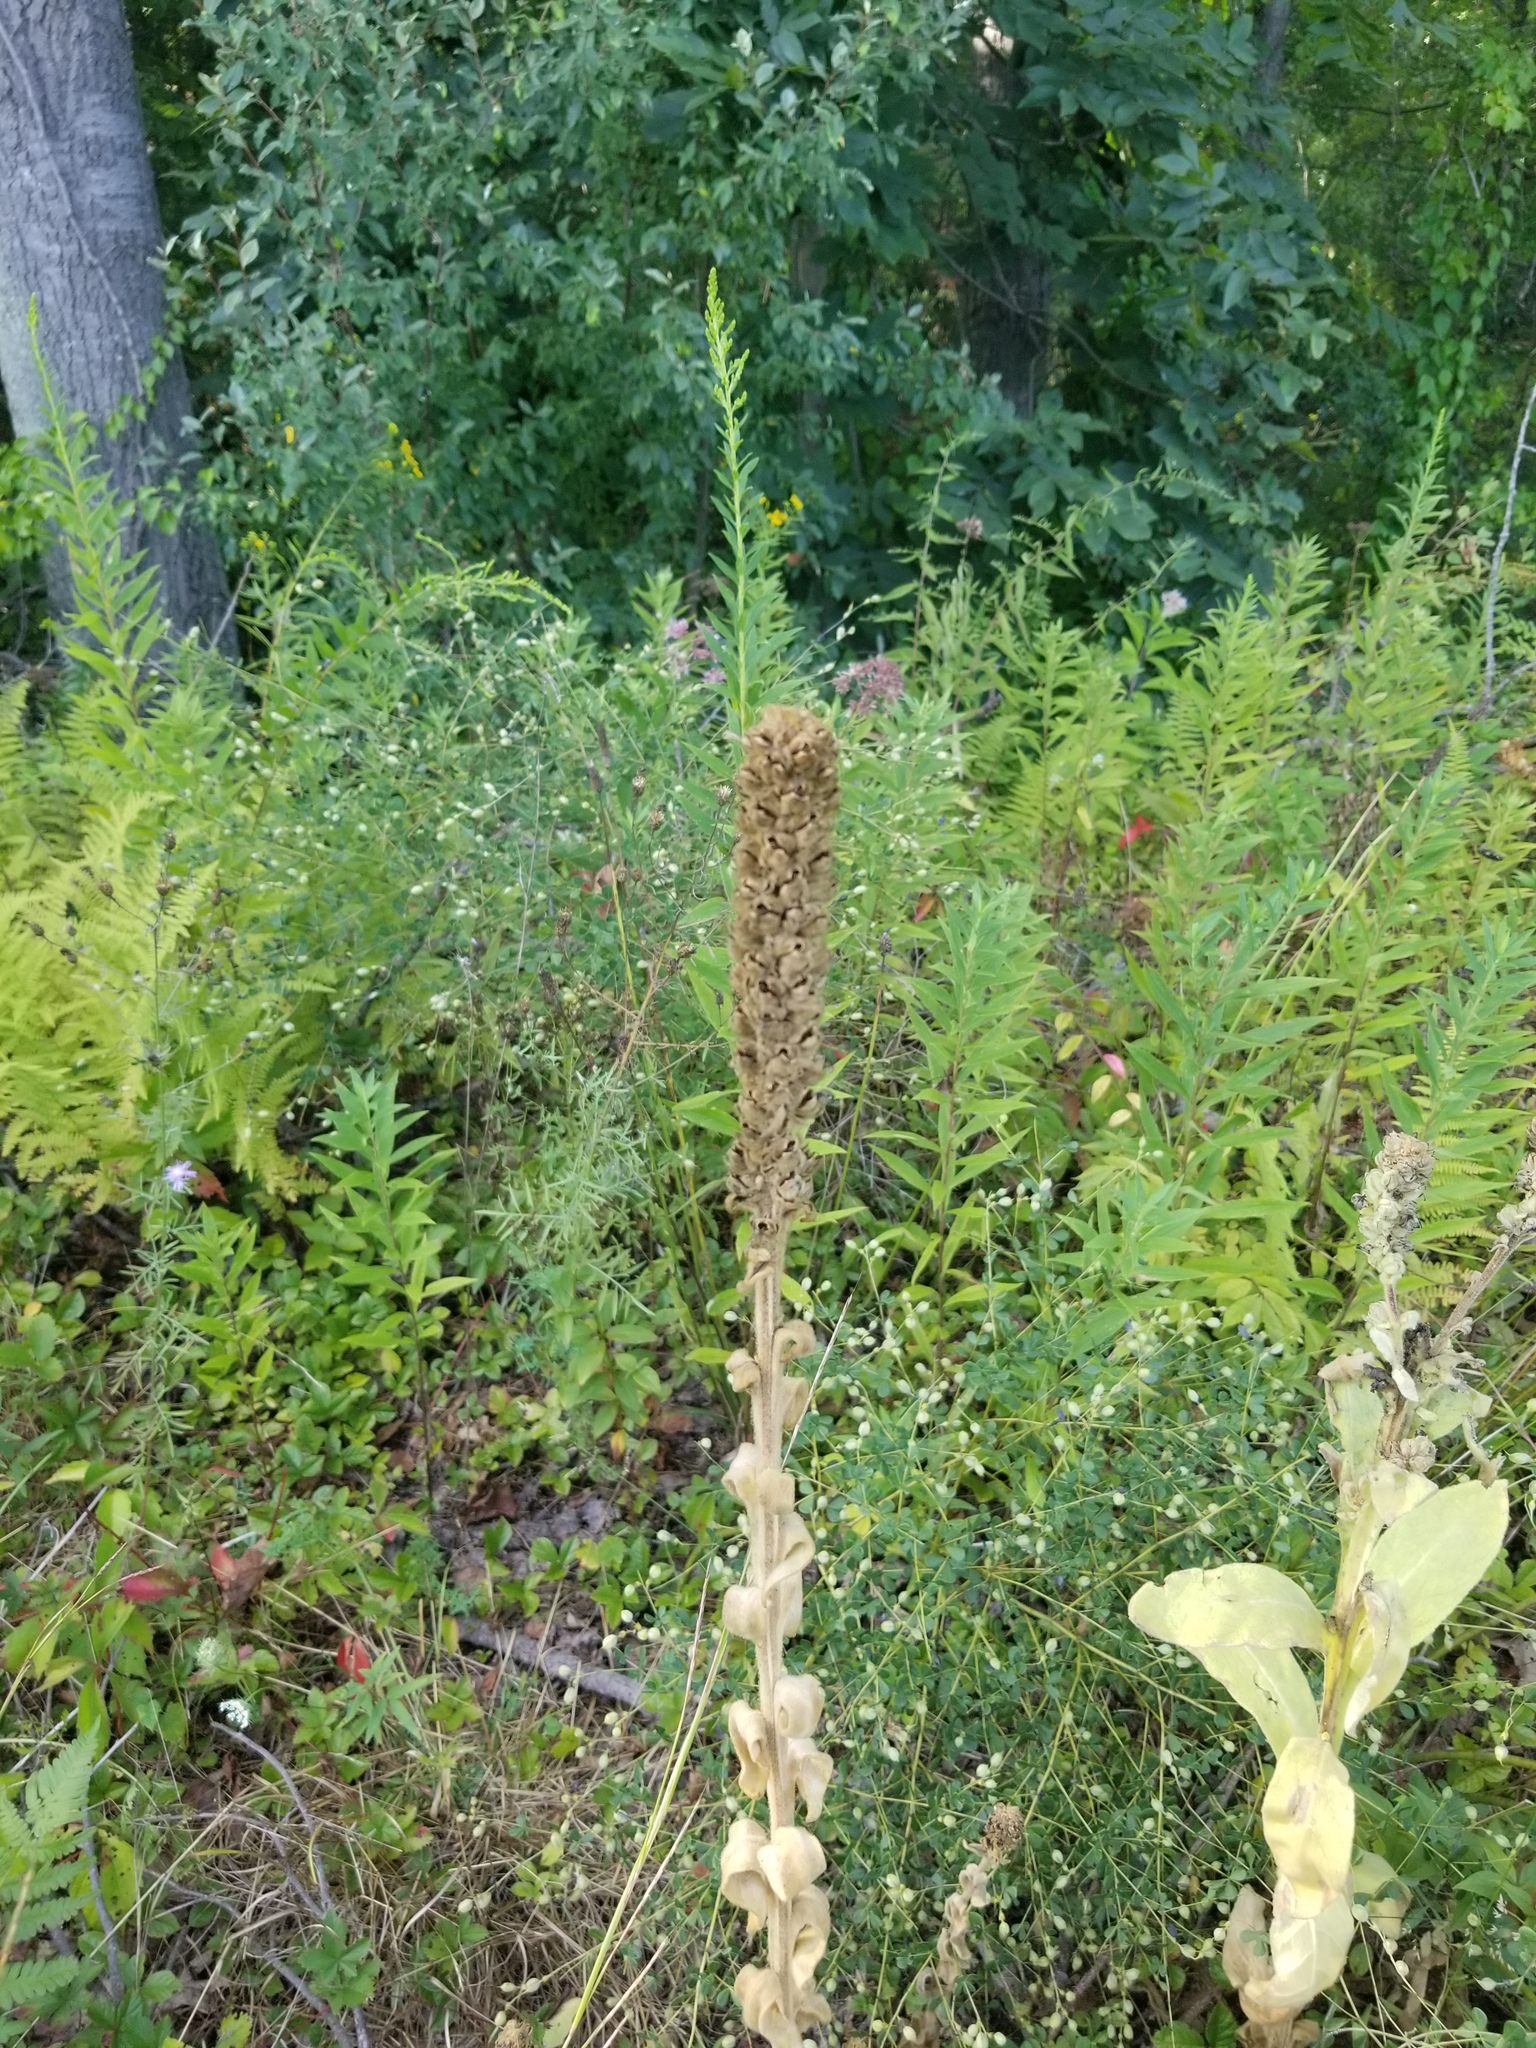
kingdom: Plantae
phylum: Tracheophyta
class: Magnoliopsida
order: Lamiales
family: Scrophulariaceae
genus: Verbascum
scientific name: Verbascum thapsus
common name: Common mullein
